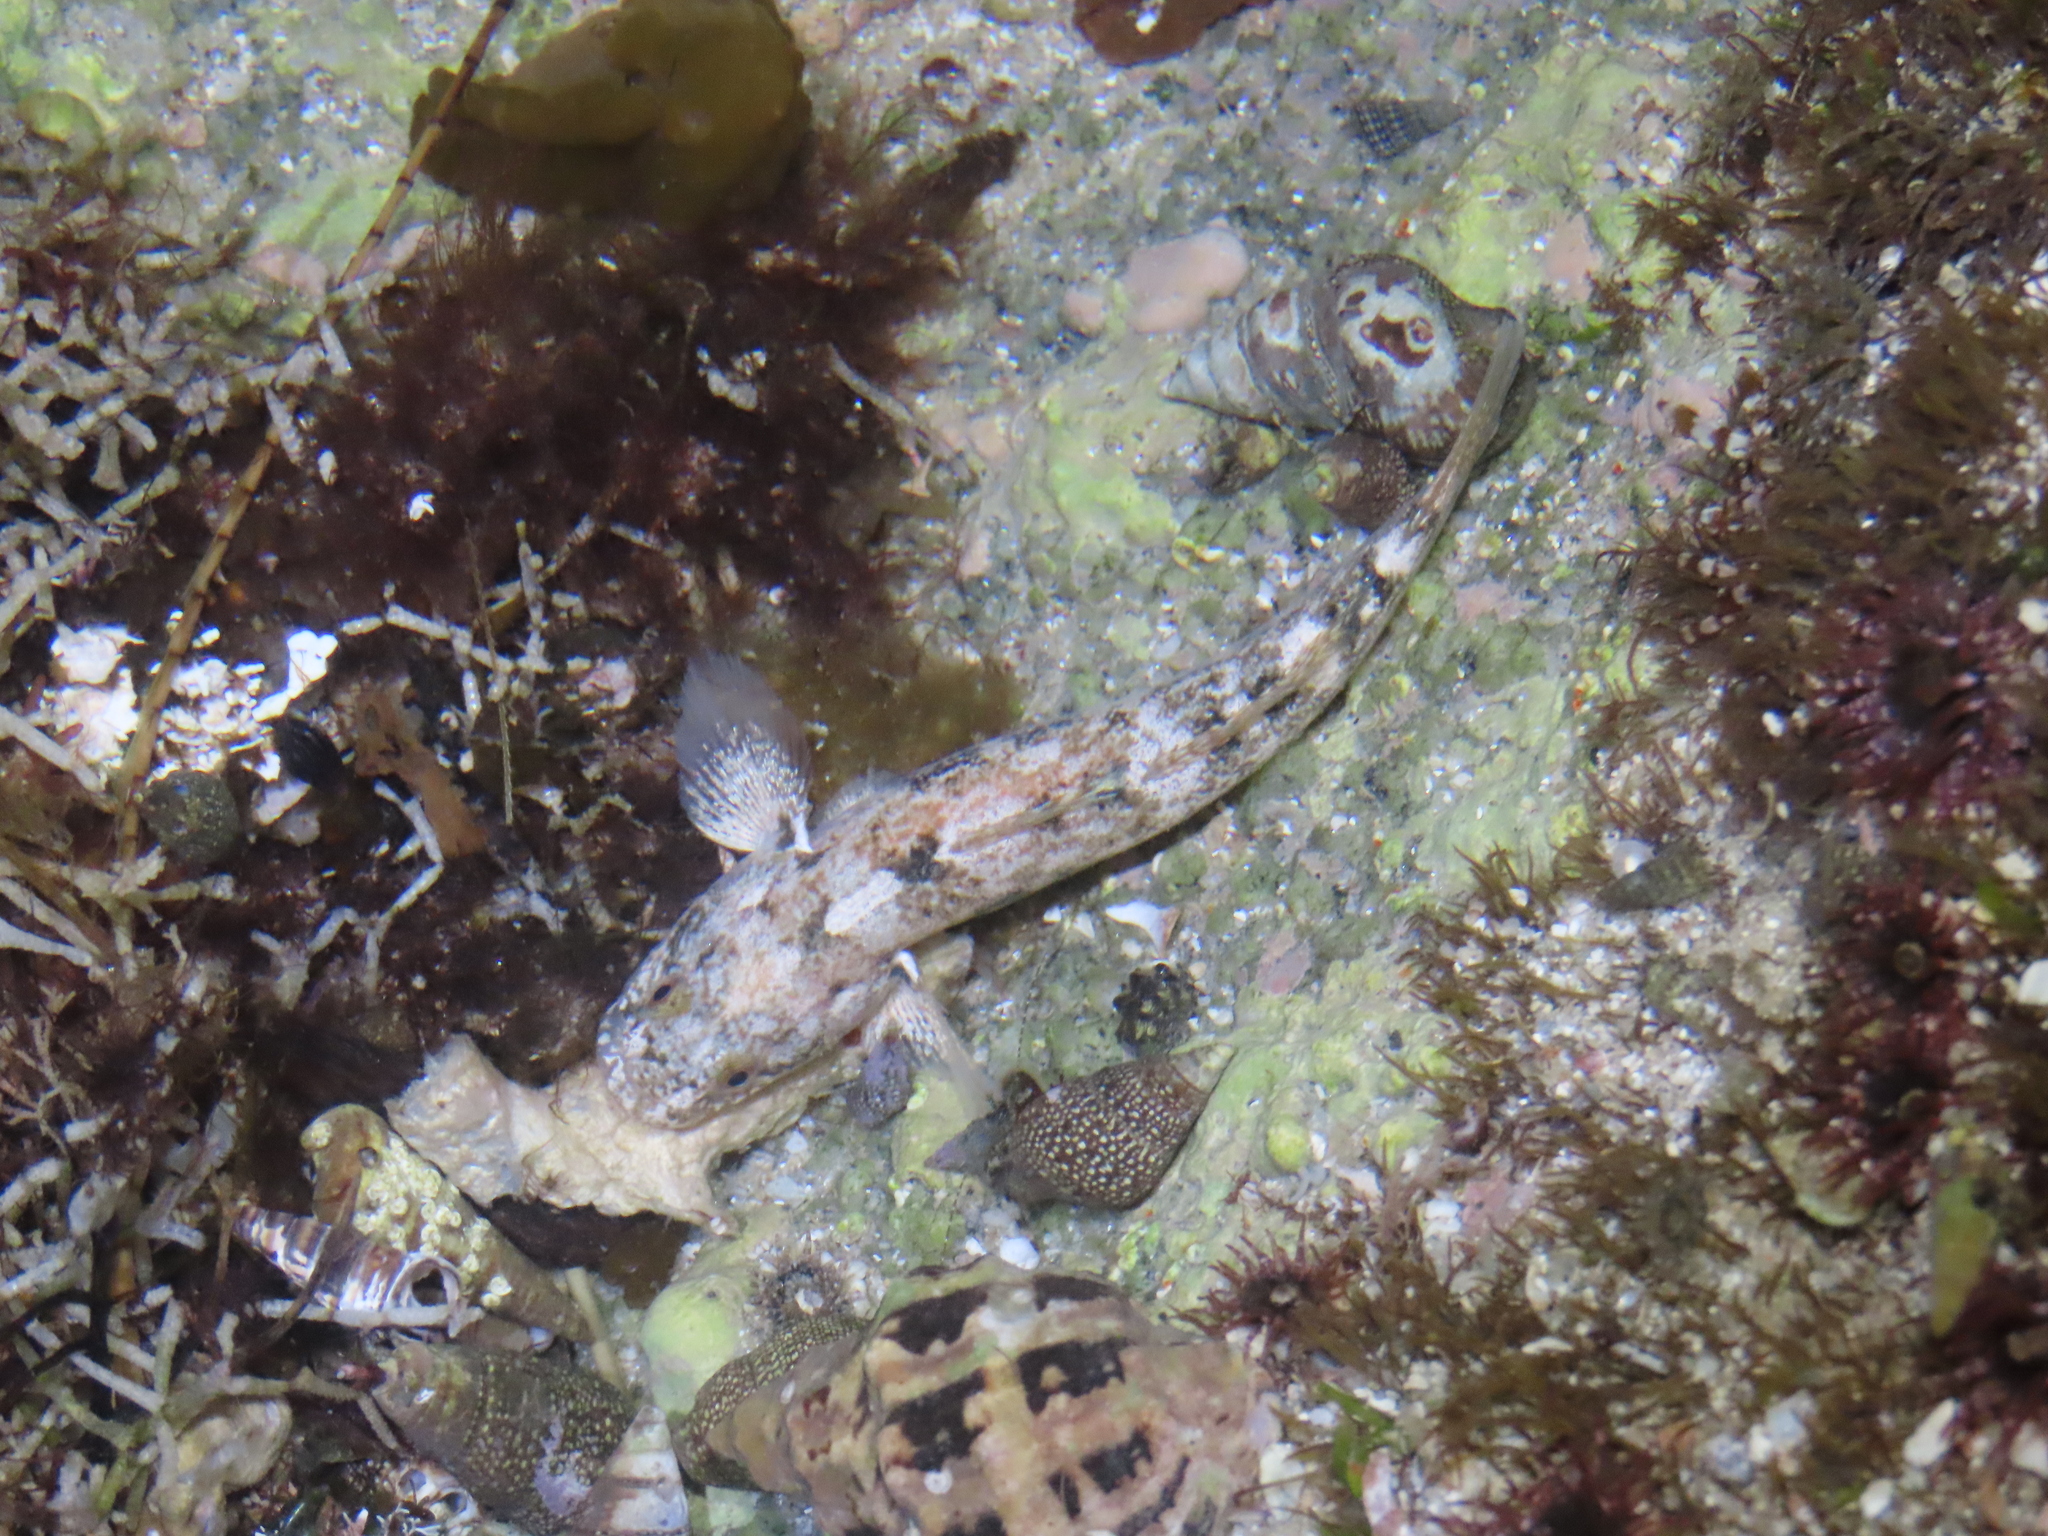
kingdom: Animalia
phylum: Chordata
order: Perciformes
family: Gobiidae
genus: Gillichthys
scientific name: Gillichthys seta
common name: Shortjaw mudsucker
